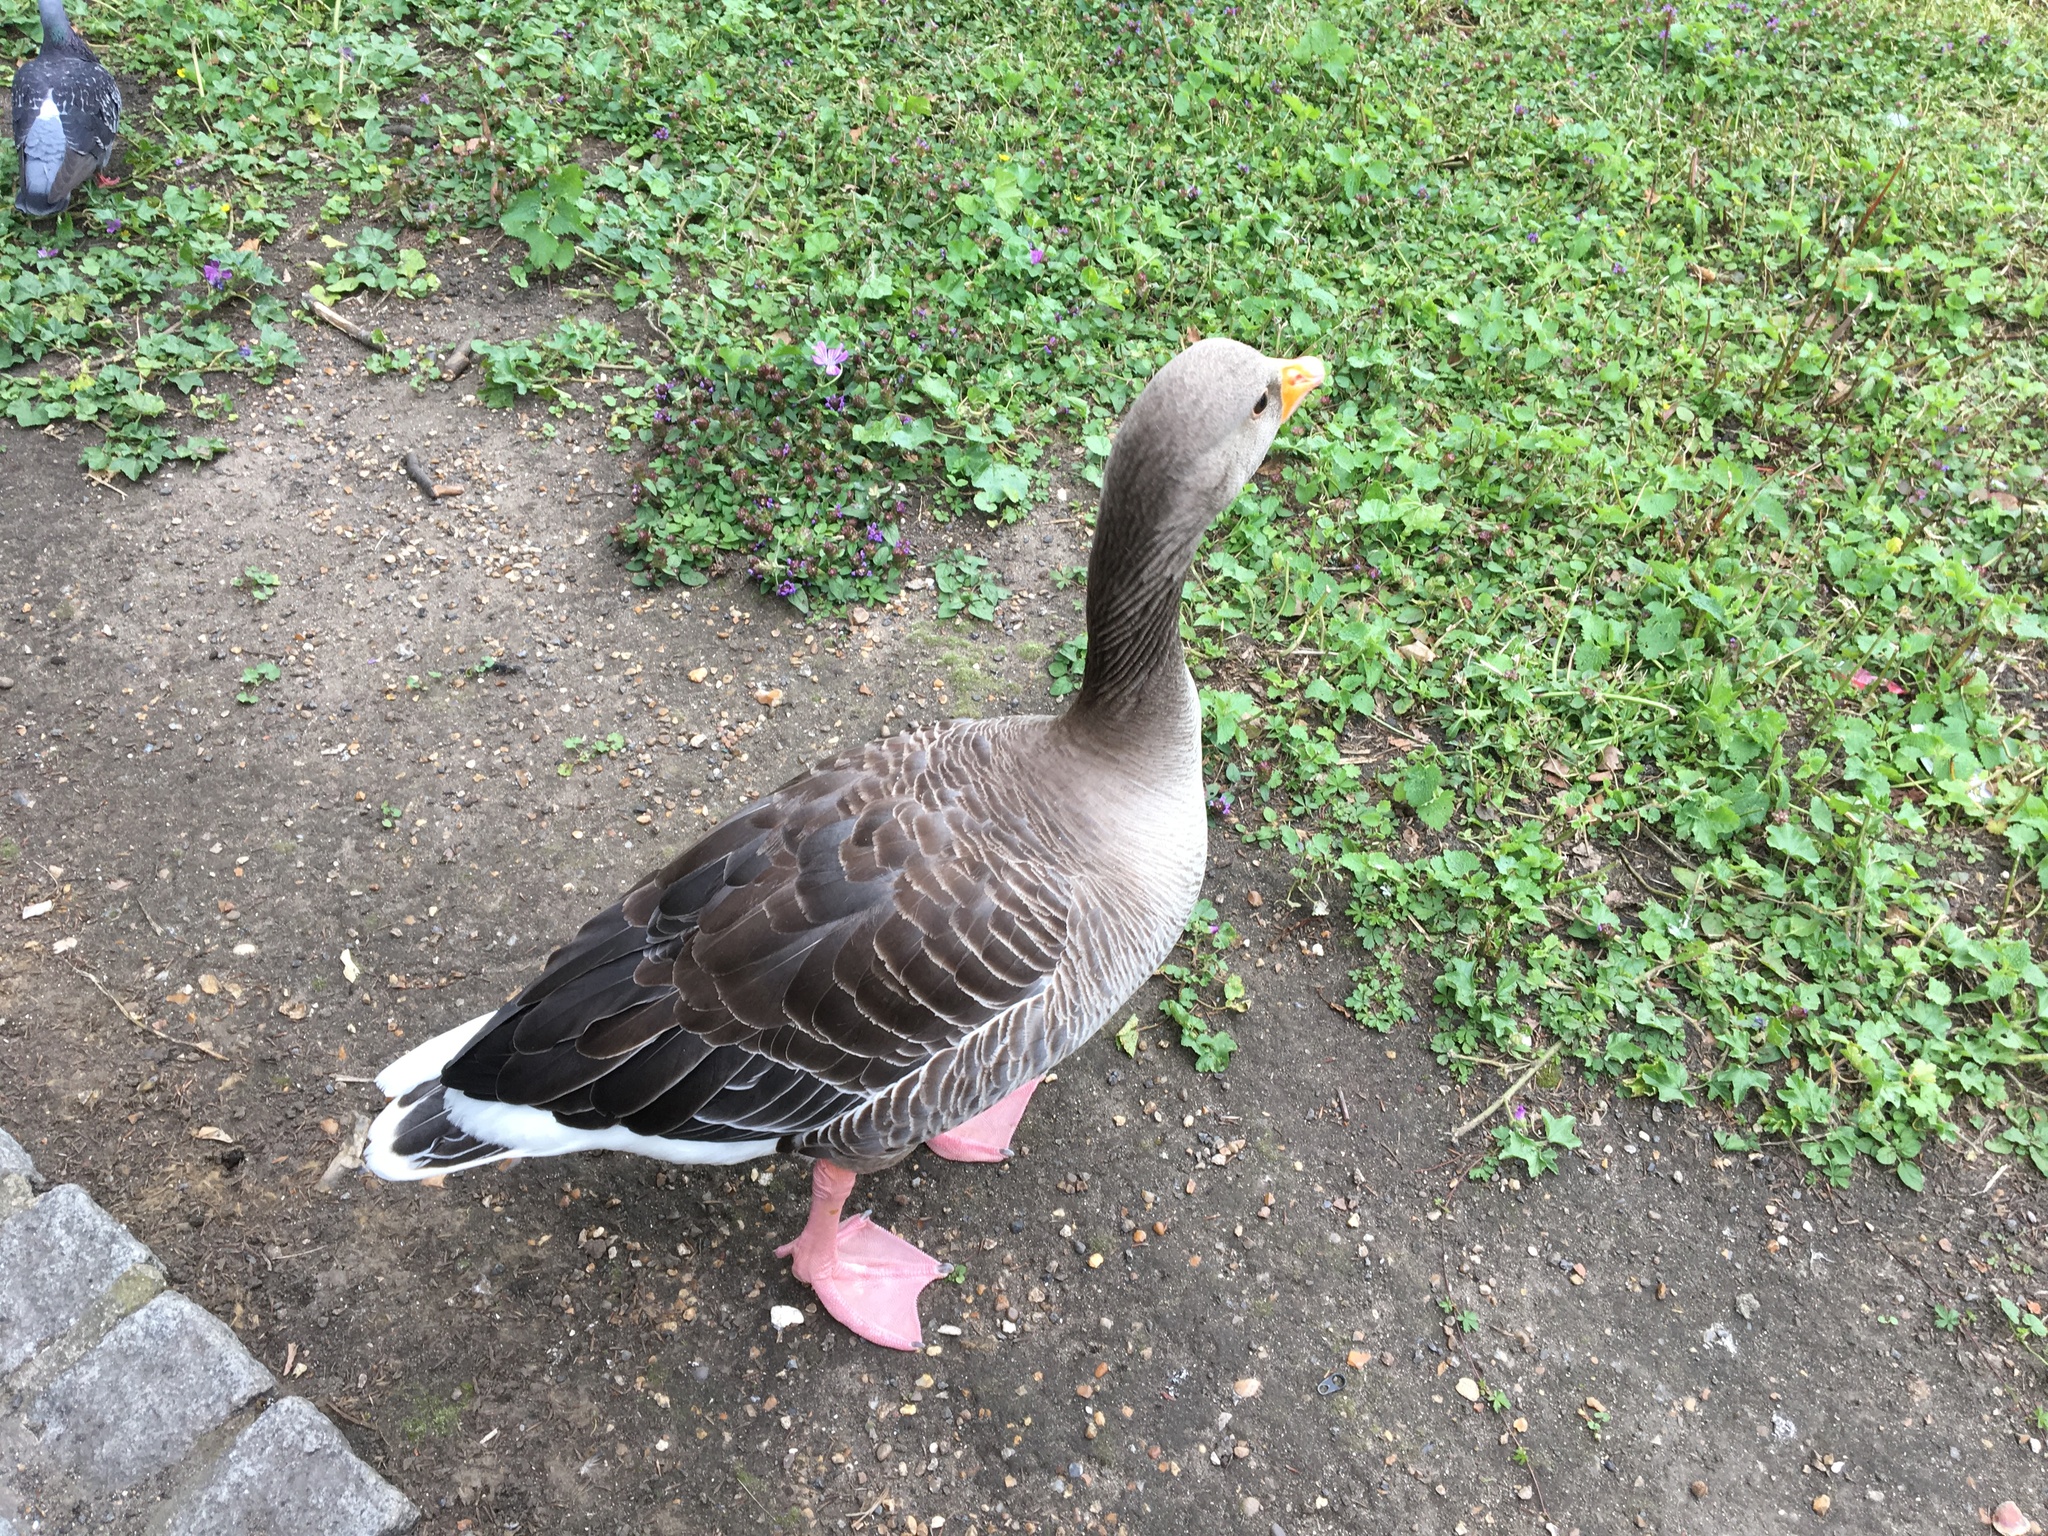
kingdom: Animalia
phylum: Chordata
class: Aves
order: Anseriformes
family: Anatidae
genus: Anser
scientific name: Anser anser
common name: Greylag goose
